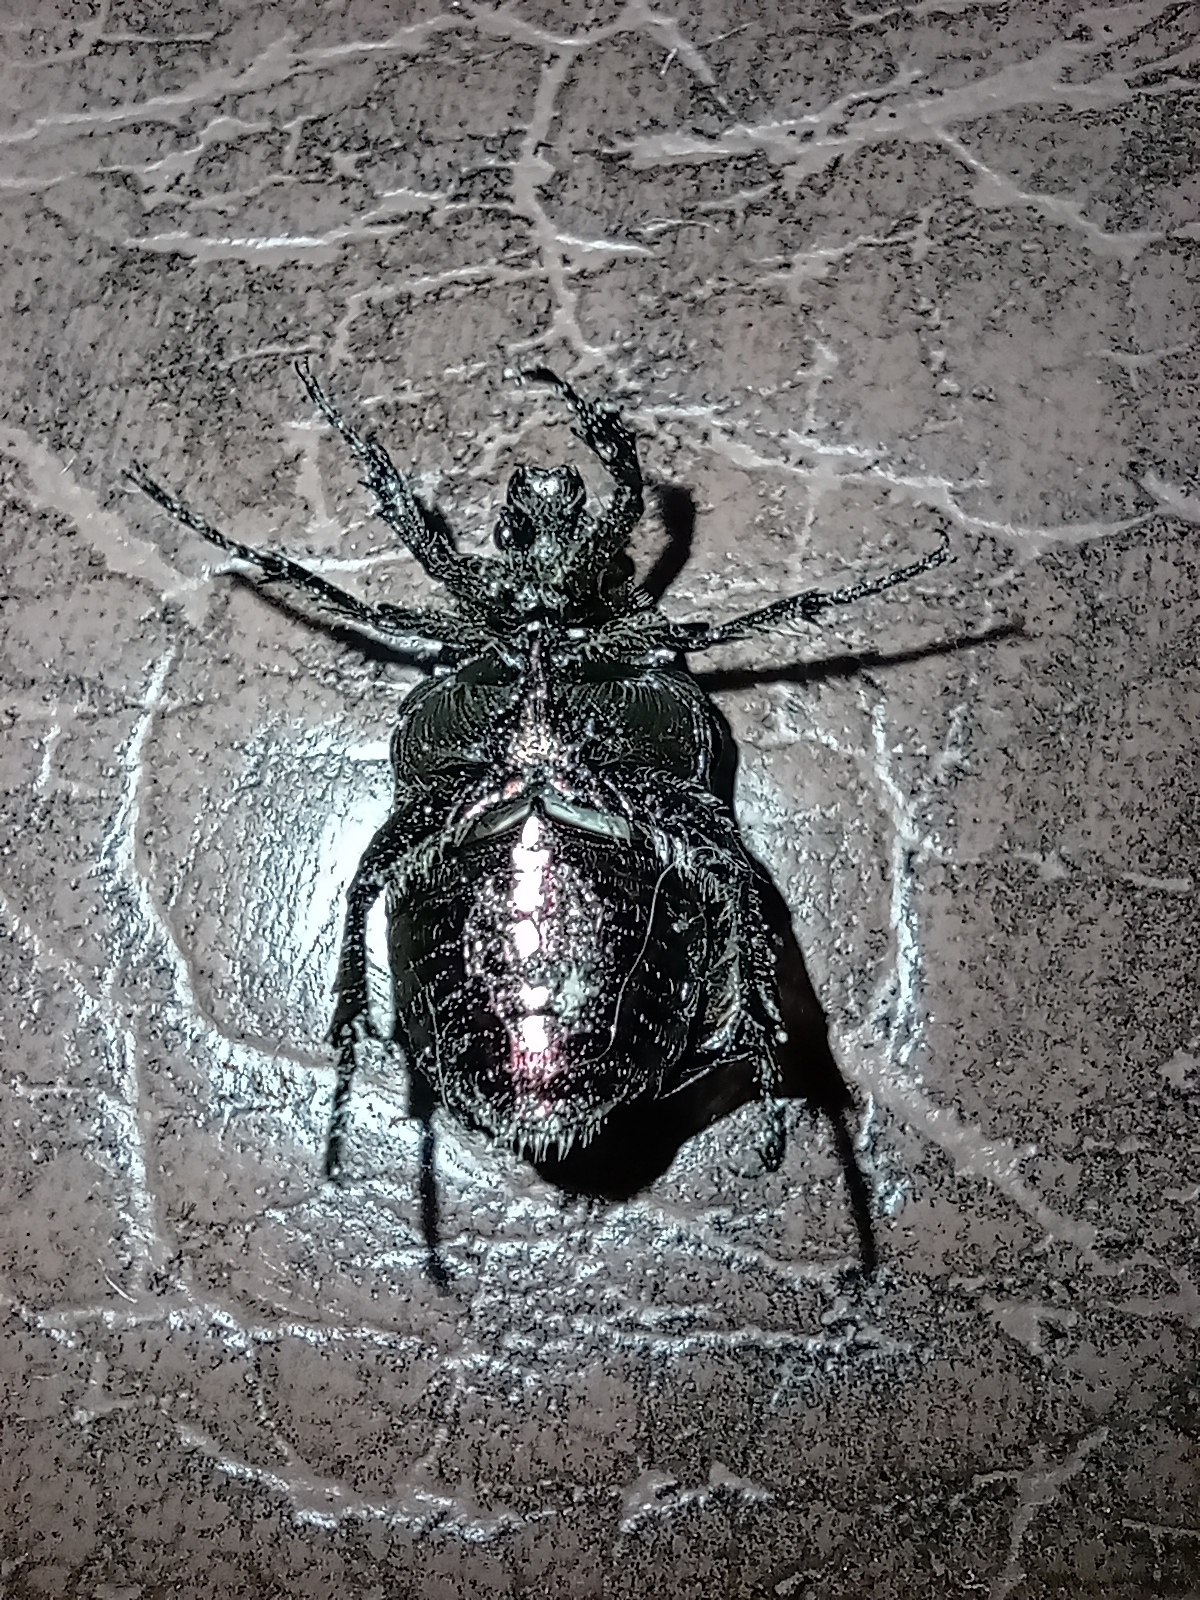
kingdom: Animalia
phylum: Arthropoda
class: Insecta
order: Coleoptera
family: Scarabaeidae
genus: Cetonia
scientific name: Cetonia aurata
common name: Rose chafer
